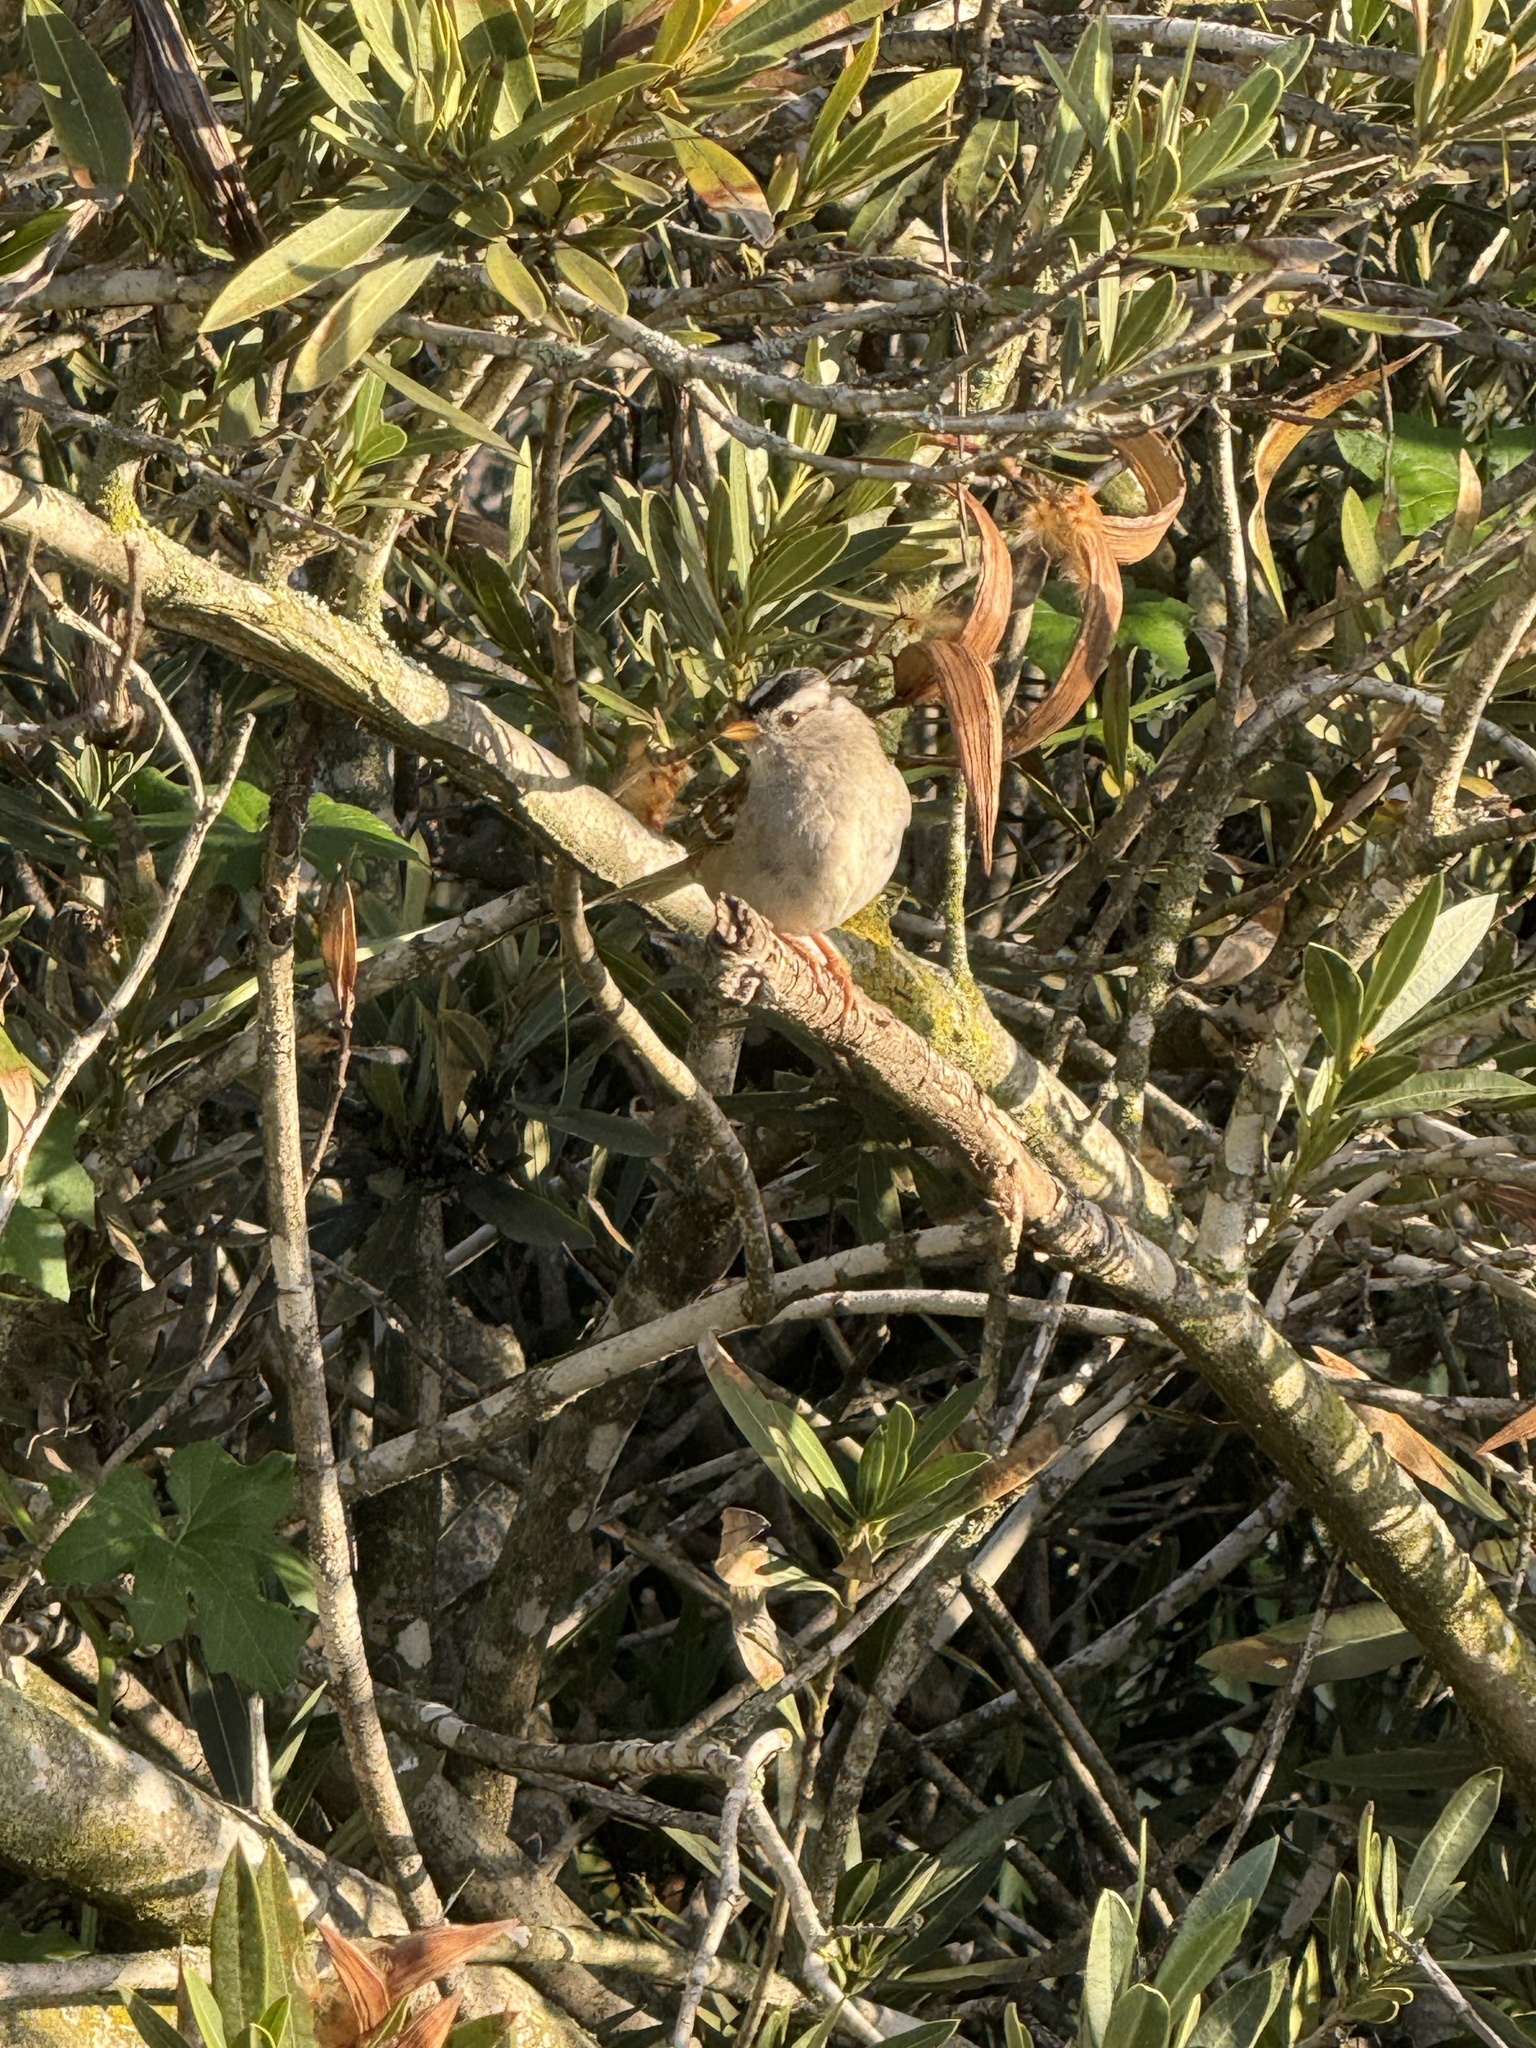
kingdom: Animalia
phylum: Chordata
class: Aves
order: Passeriformes
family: Passerellidae
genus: Zonotrichia
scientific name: Zonotrichia leucophrys
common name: White-crowned sparrow
